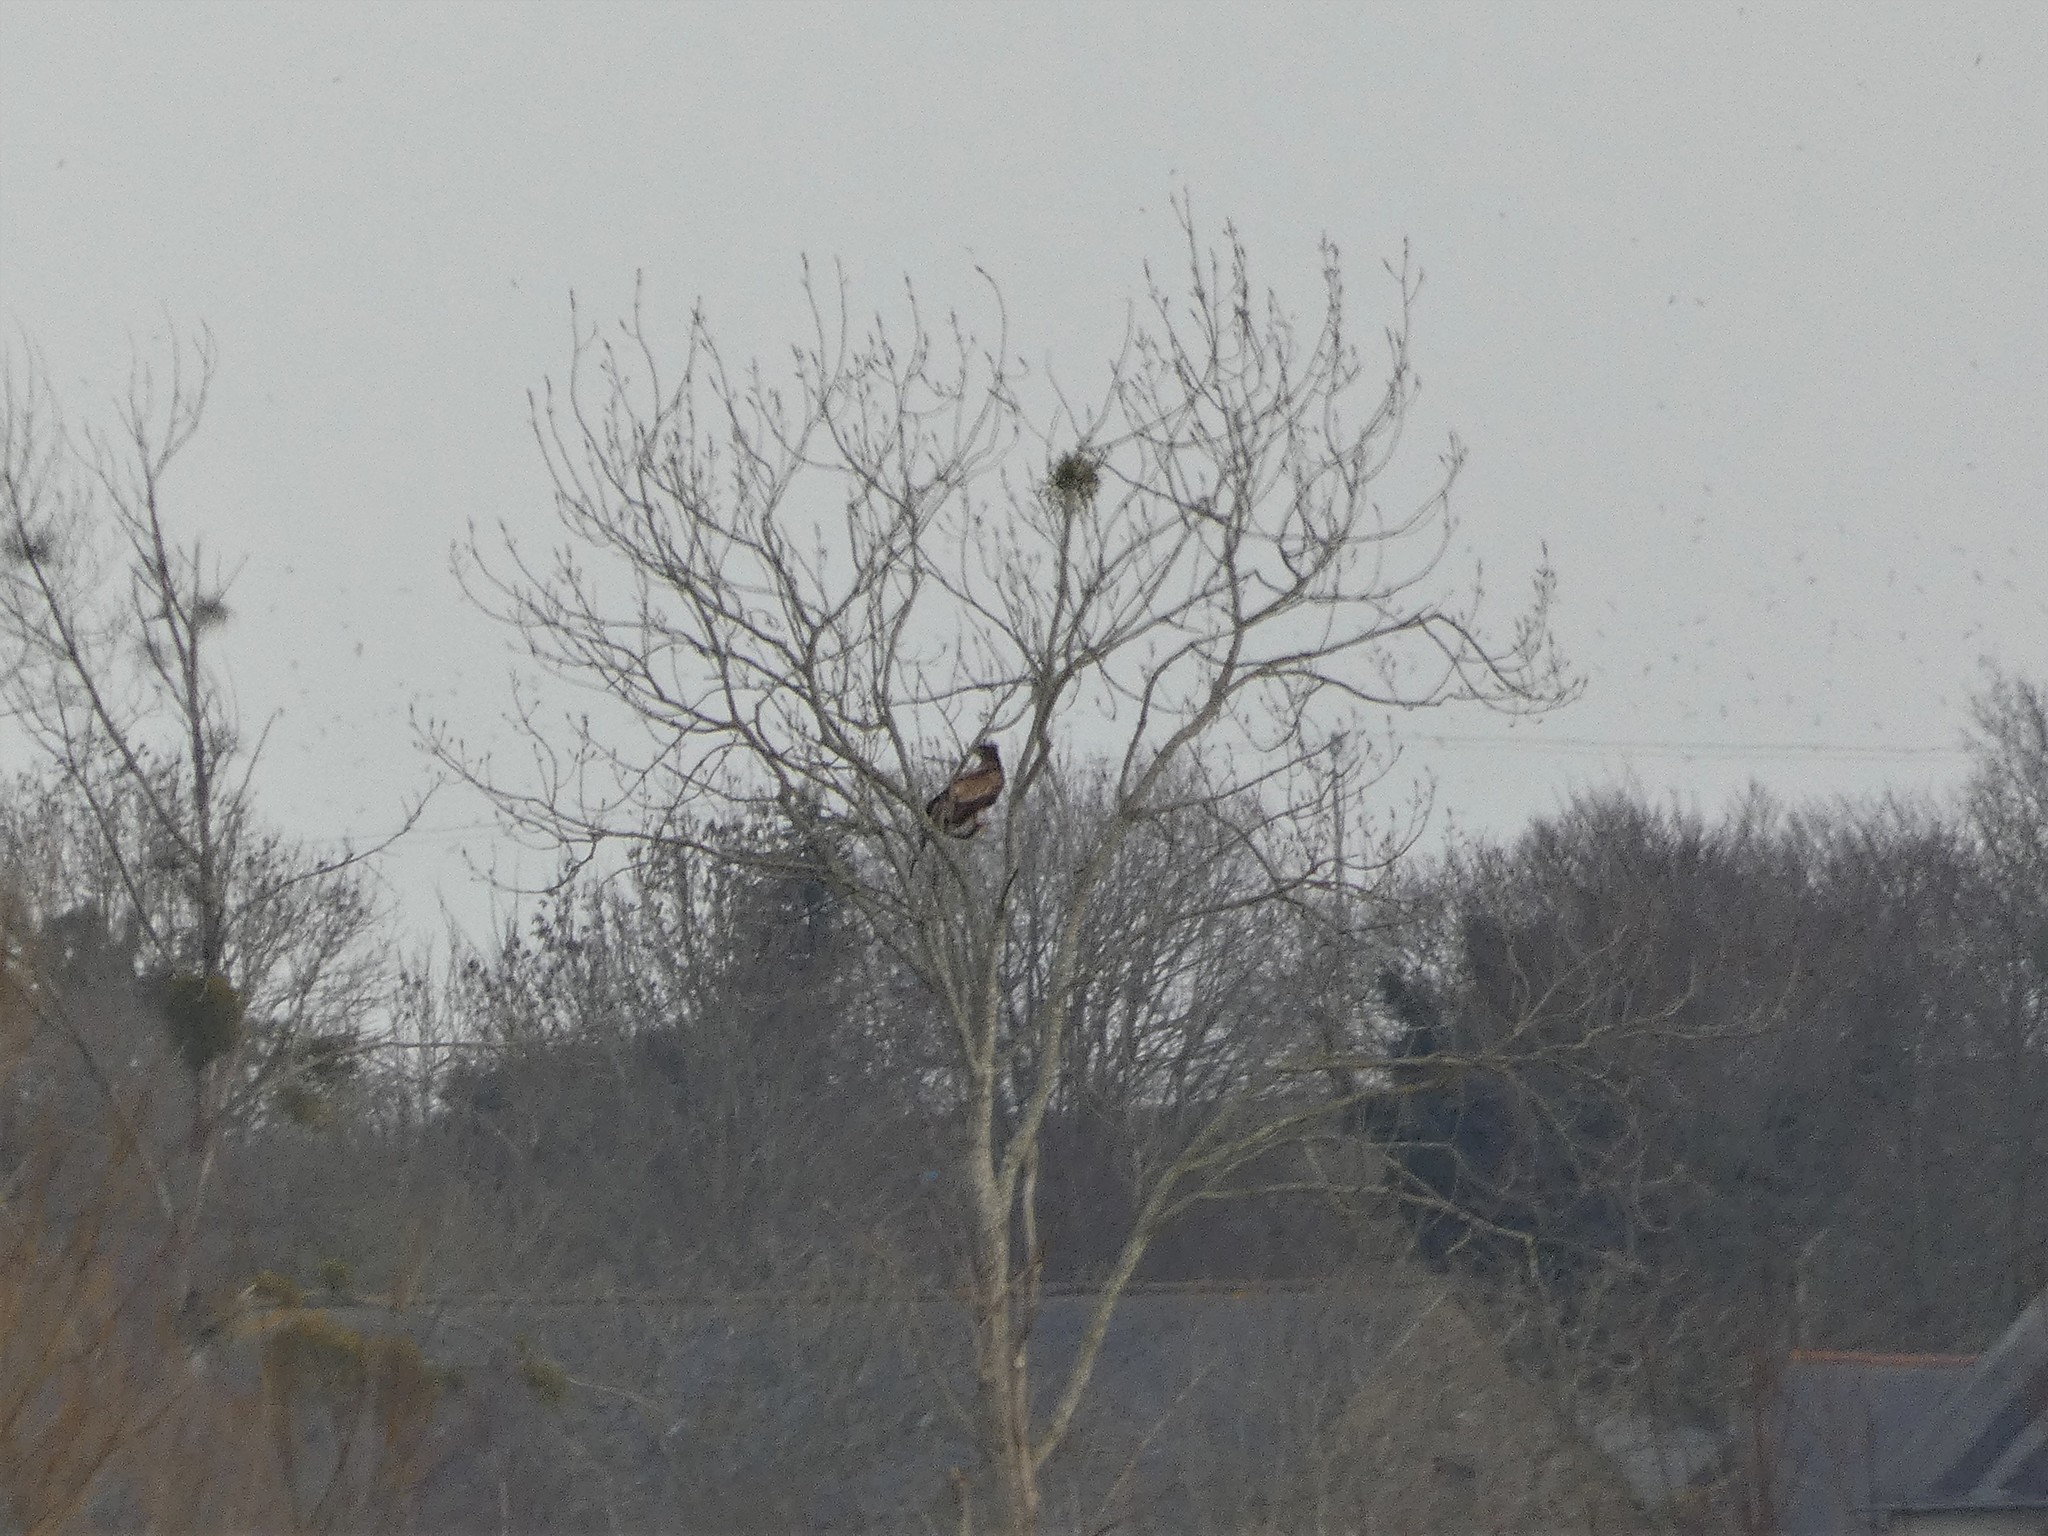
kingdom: Animalia
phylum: Chordata
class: Aves
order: Accipitriformes
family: Accipitridae
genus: Haliaeetus
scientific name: Haliaeetus albicilla
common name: White-tailed eagle
